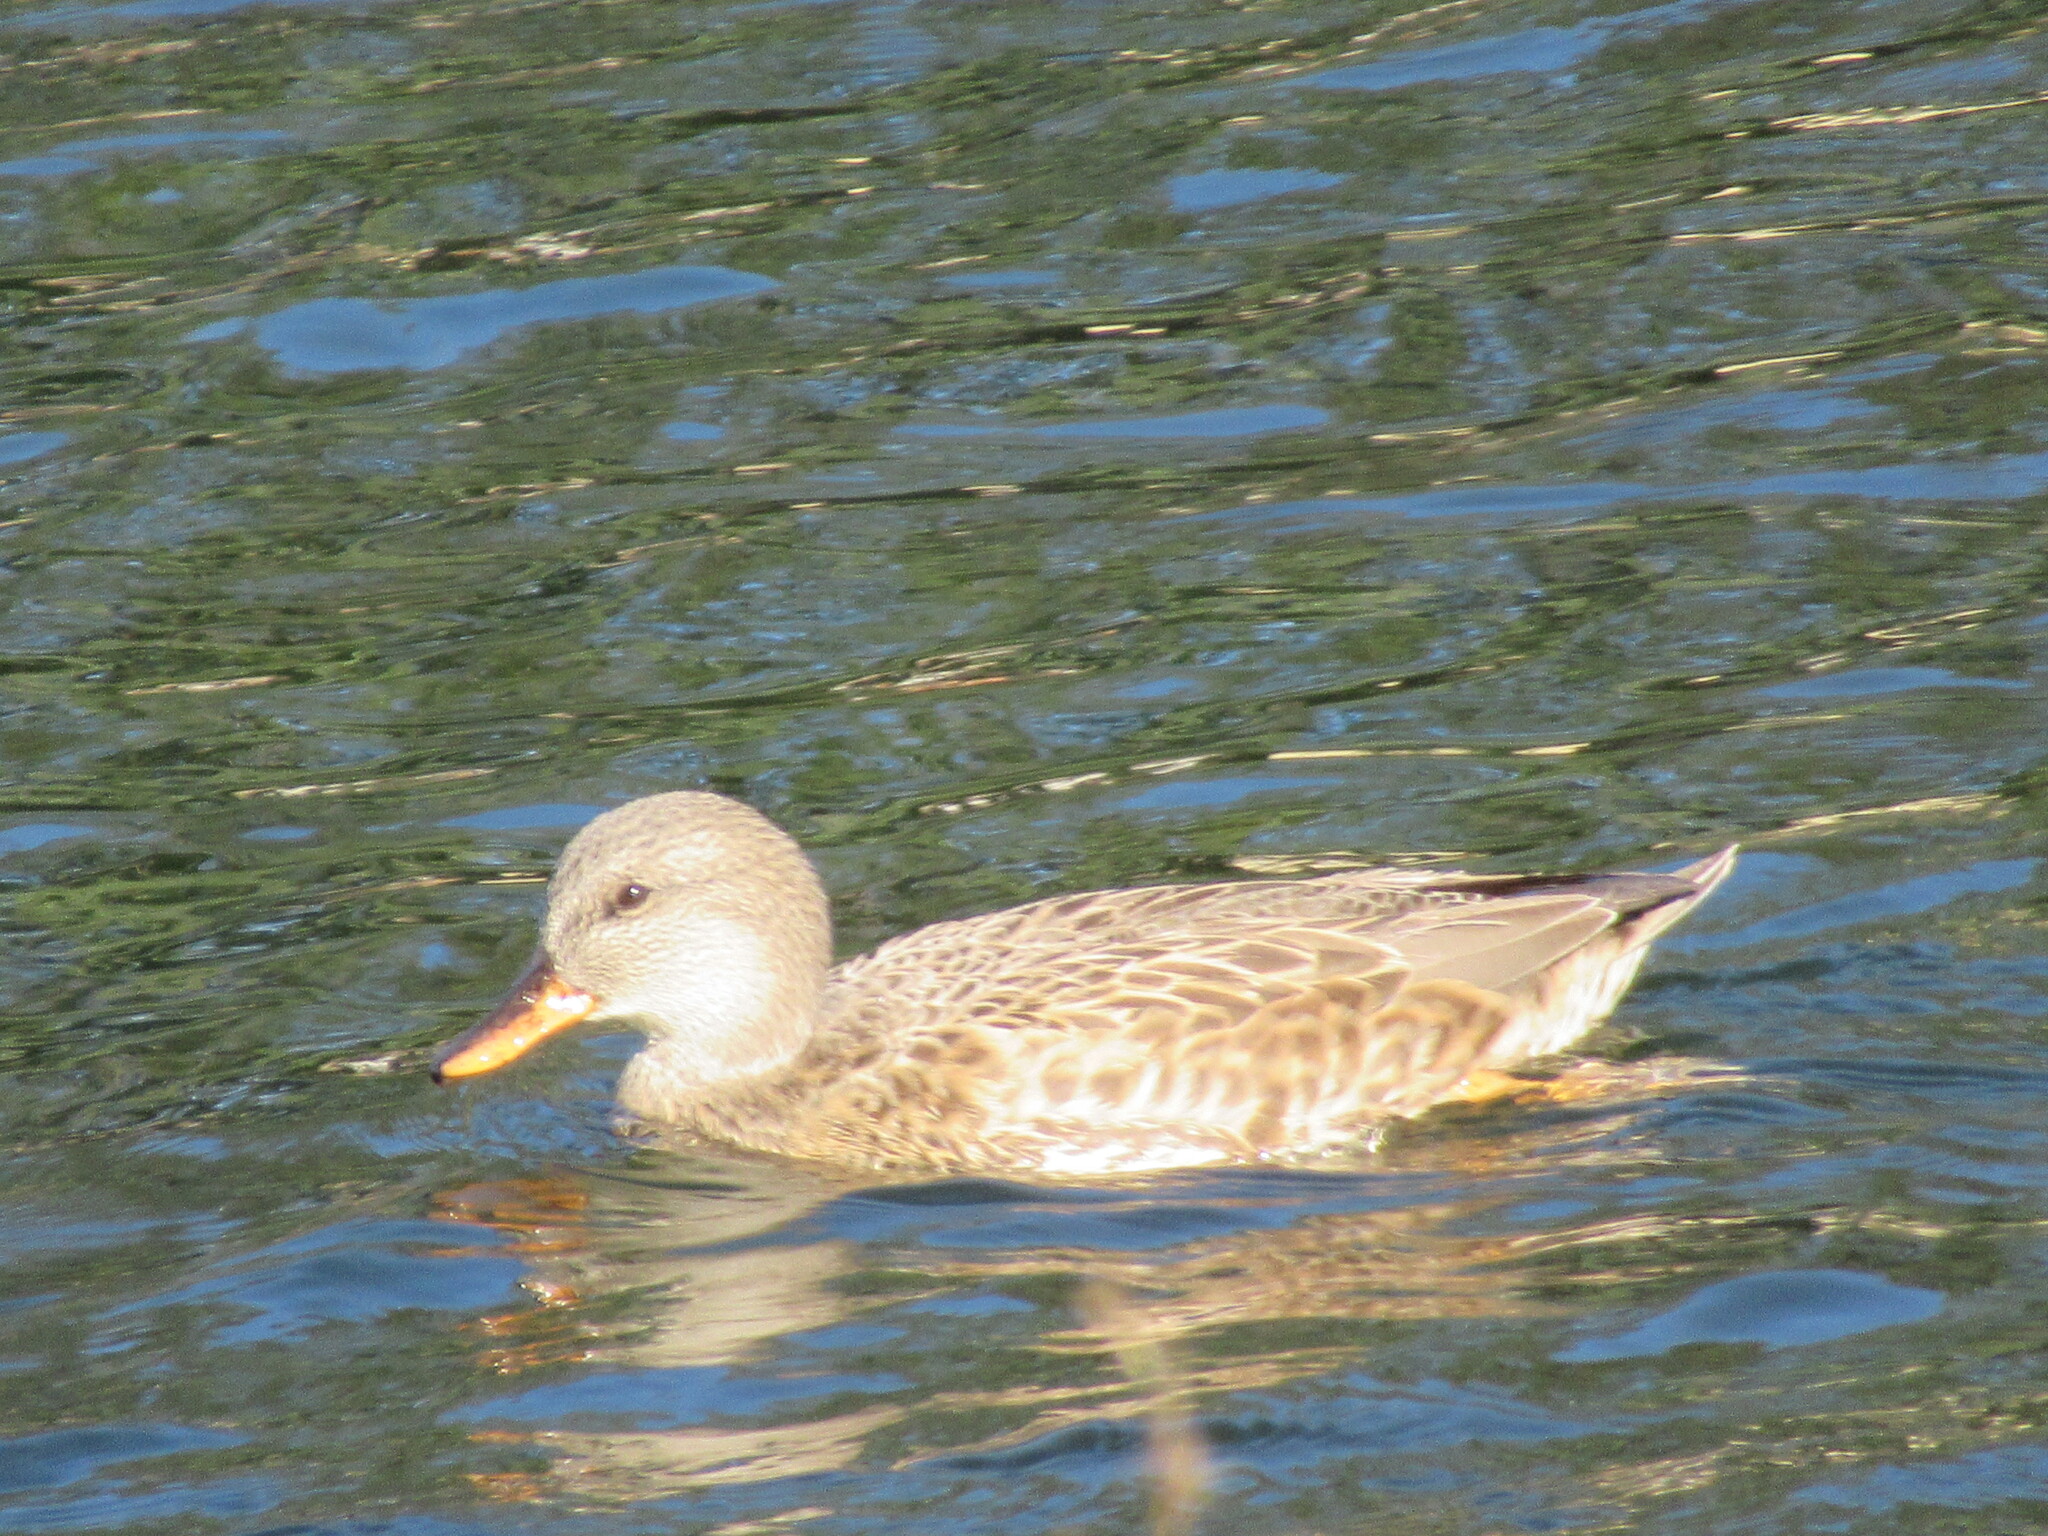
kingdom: Animalia
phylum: Chordata
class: Aves
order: Anseriformes
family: Anatidae
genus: Mareca
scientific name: Mareca strepera
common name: Gadwall
